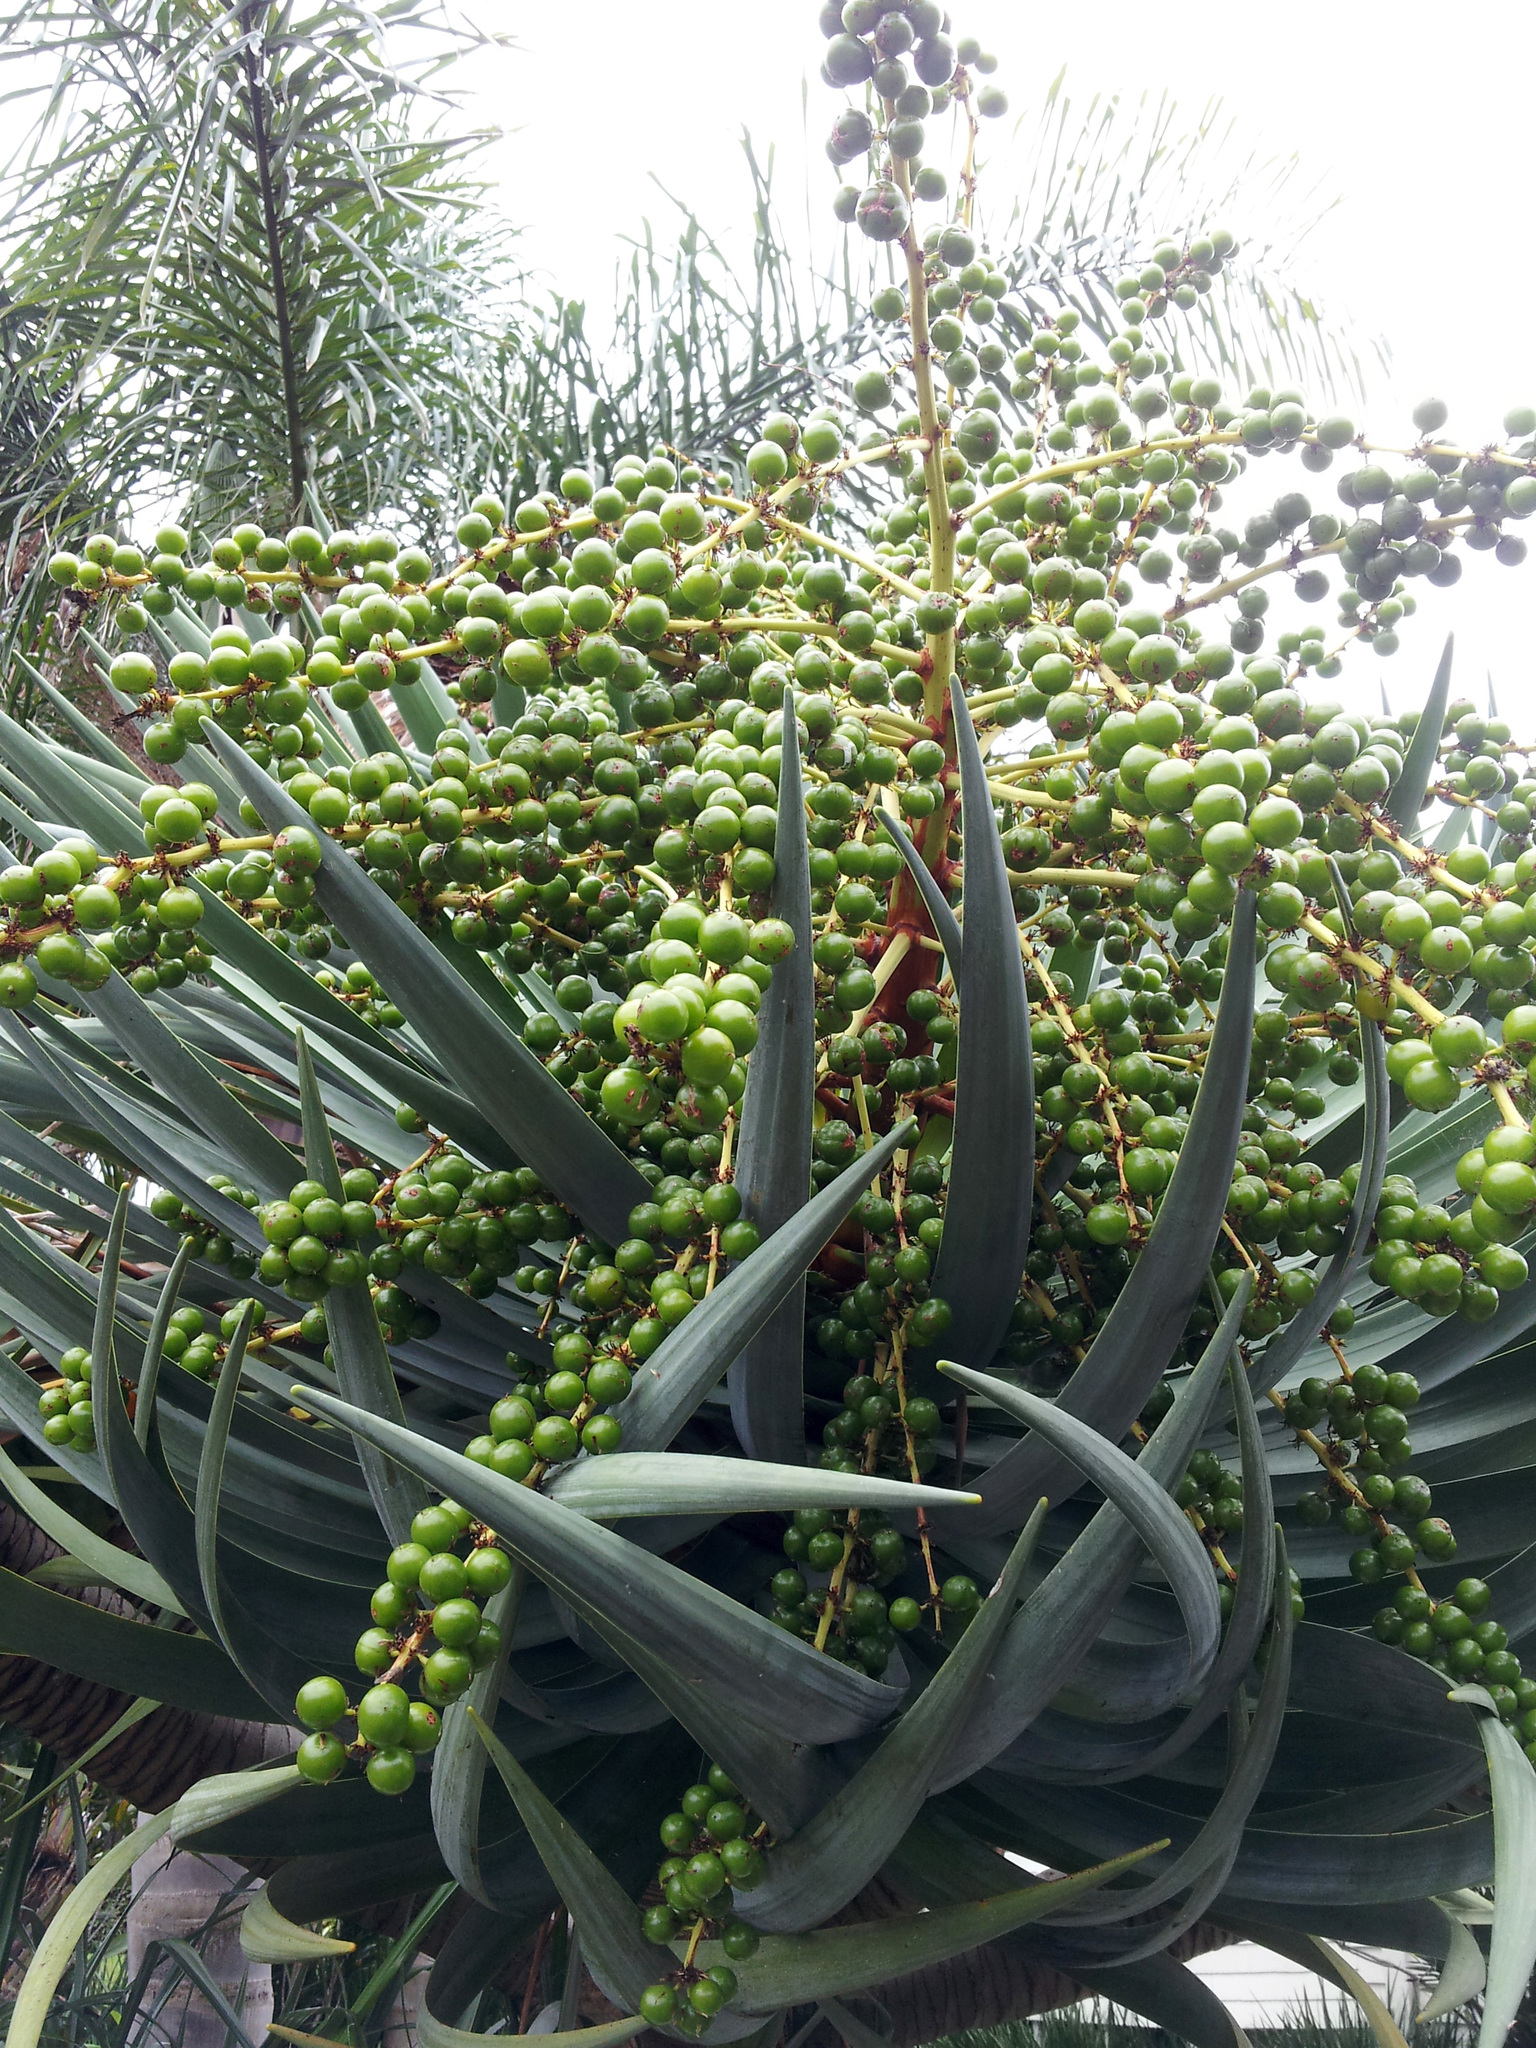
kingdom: Plantae
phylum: Tracheophyta
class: Liliopsida
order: Asparagales
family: Asparagaceae
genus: Dracaena
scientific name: Dracaena draco
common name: Canary island dragon tree
